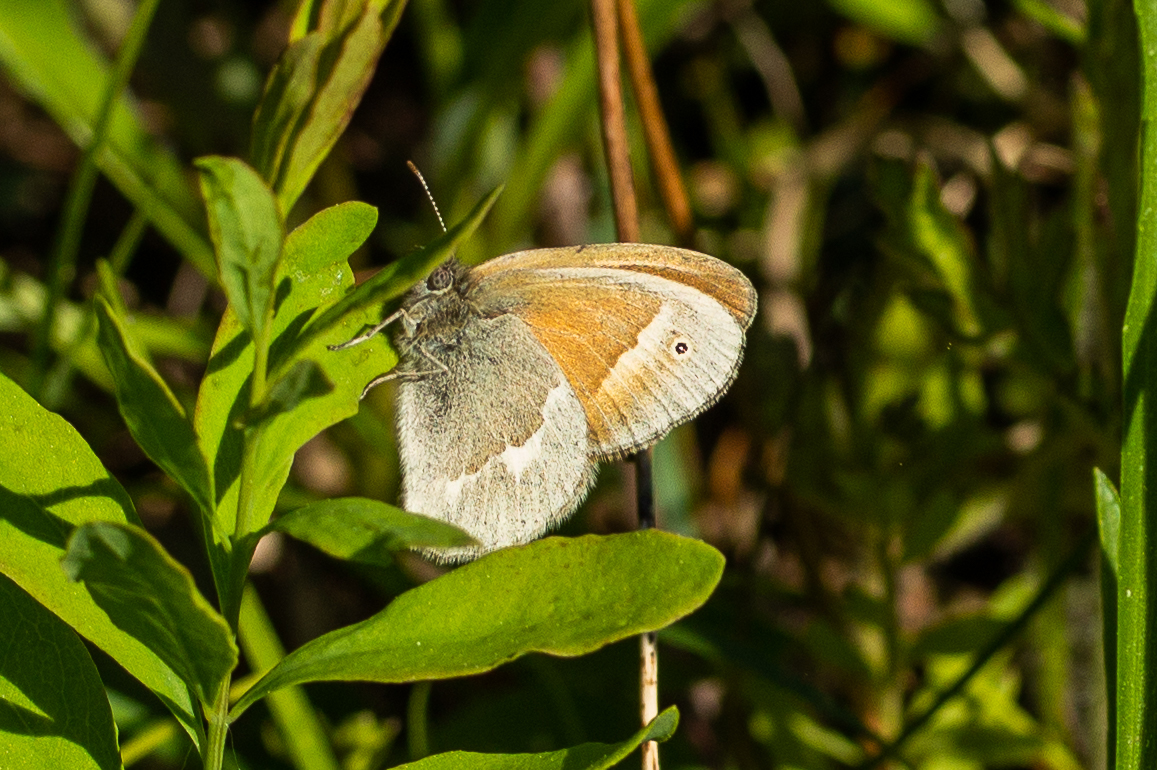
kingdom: Animalia
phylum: Arthropoda
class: Insecta
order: Lepidoptera
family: Nymphalidae
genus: Coenonympha
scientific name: Coenonympha california
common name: Common ringlet
